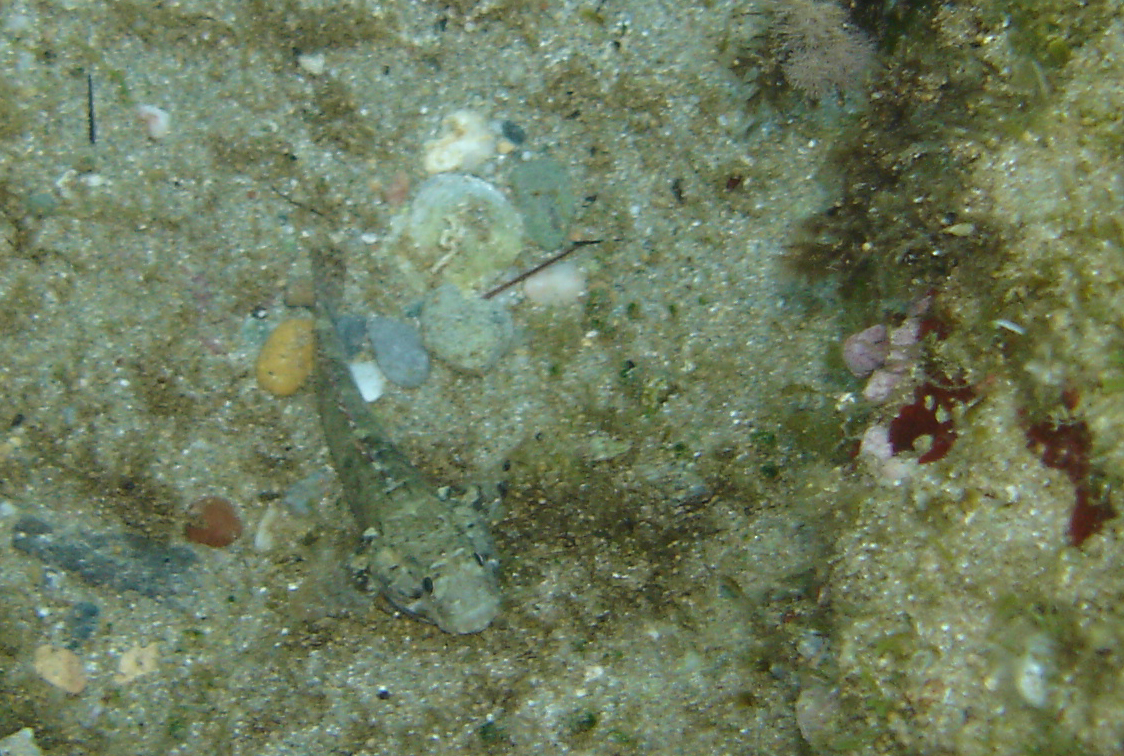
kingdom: Animalia
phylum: Chordata
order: Perciformes
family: Gobiidae
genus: Gobius
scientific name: Gobius paganellus
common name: Rock goby
